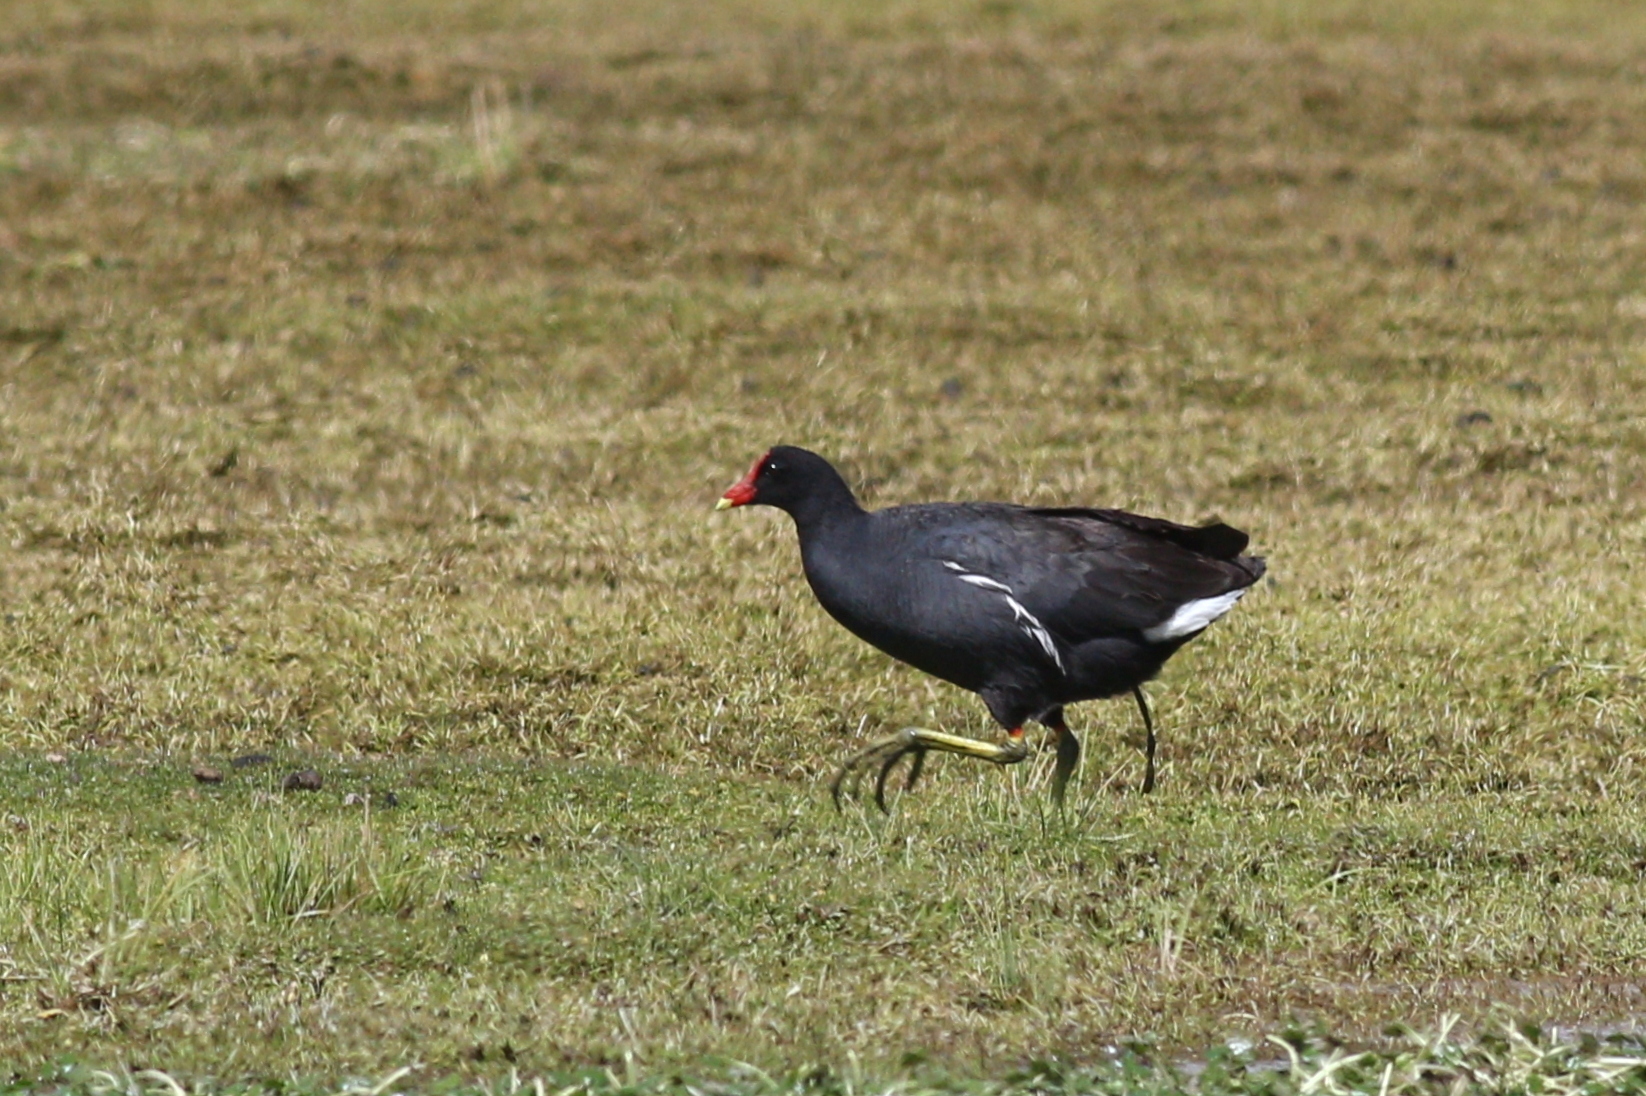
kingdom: Animalia
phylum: Chordata
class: Aves
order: Gruiformes
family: Rallidae
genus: Gallinula
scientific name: Gallinula chloropus
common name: Common moorhen
